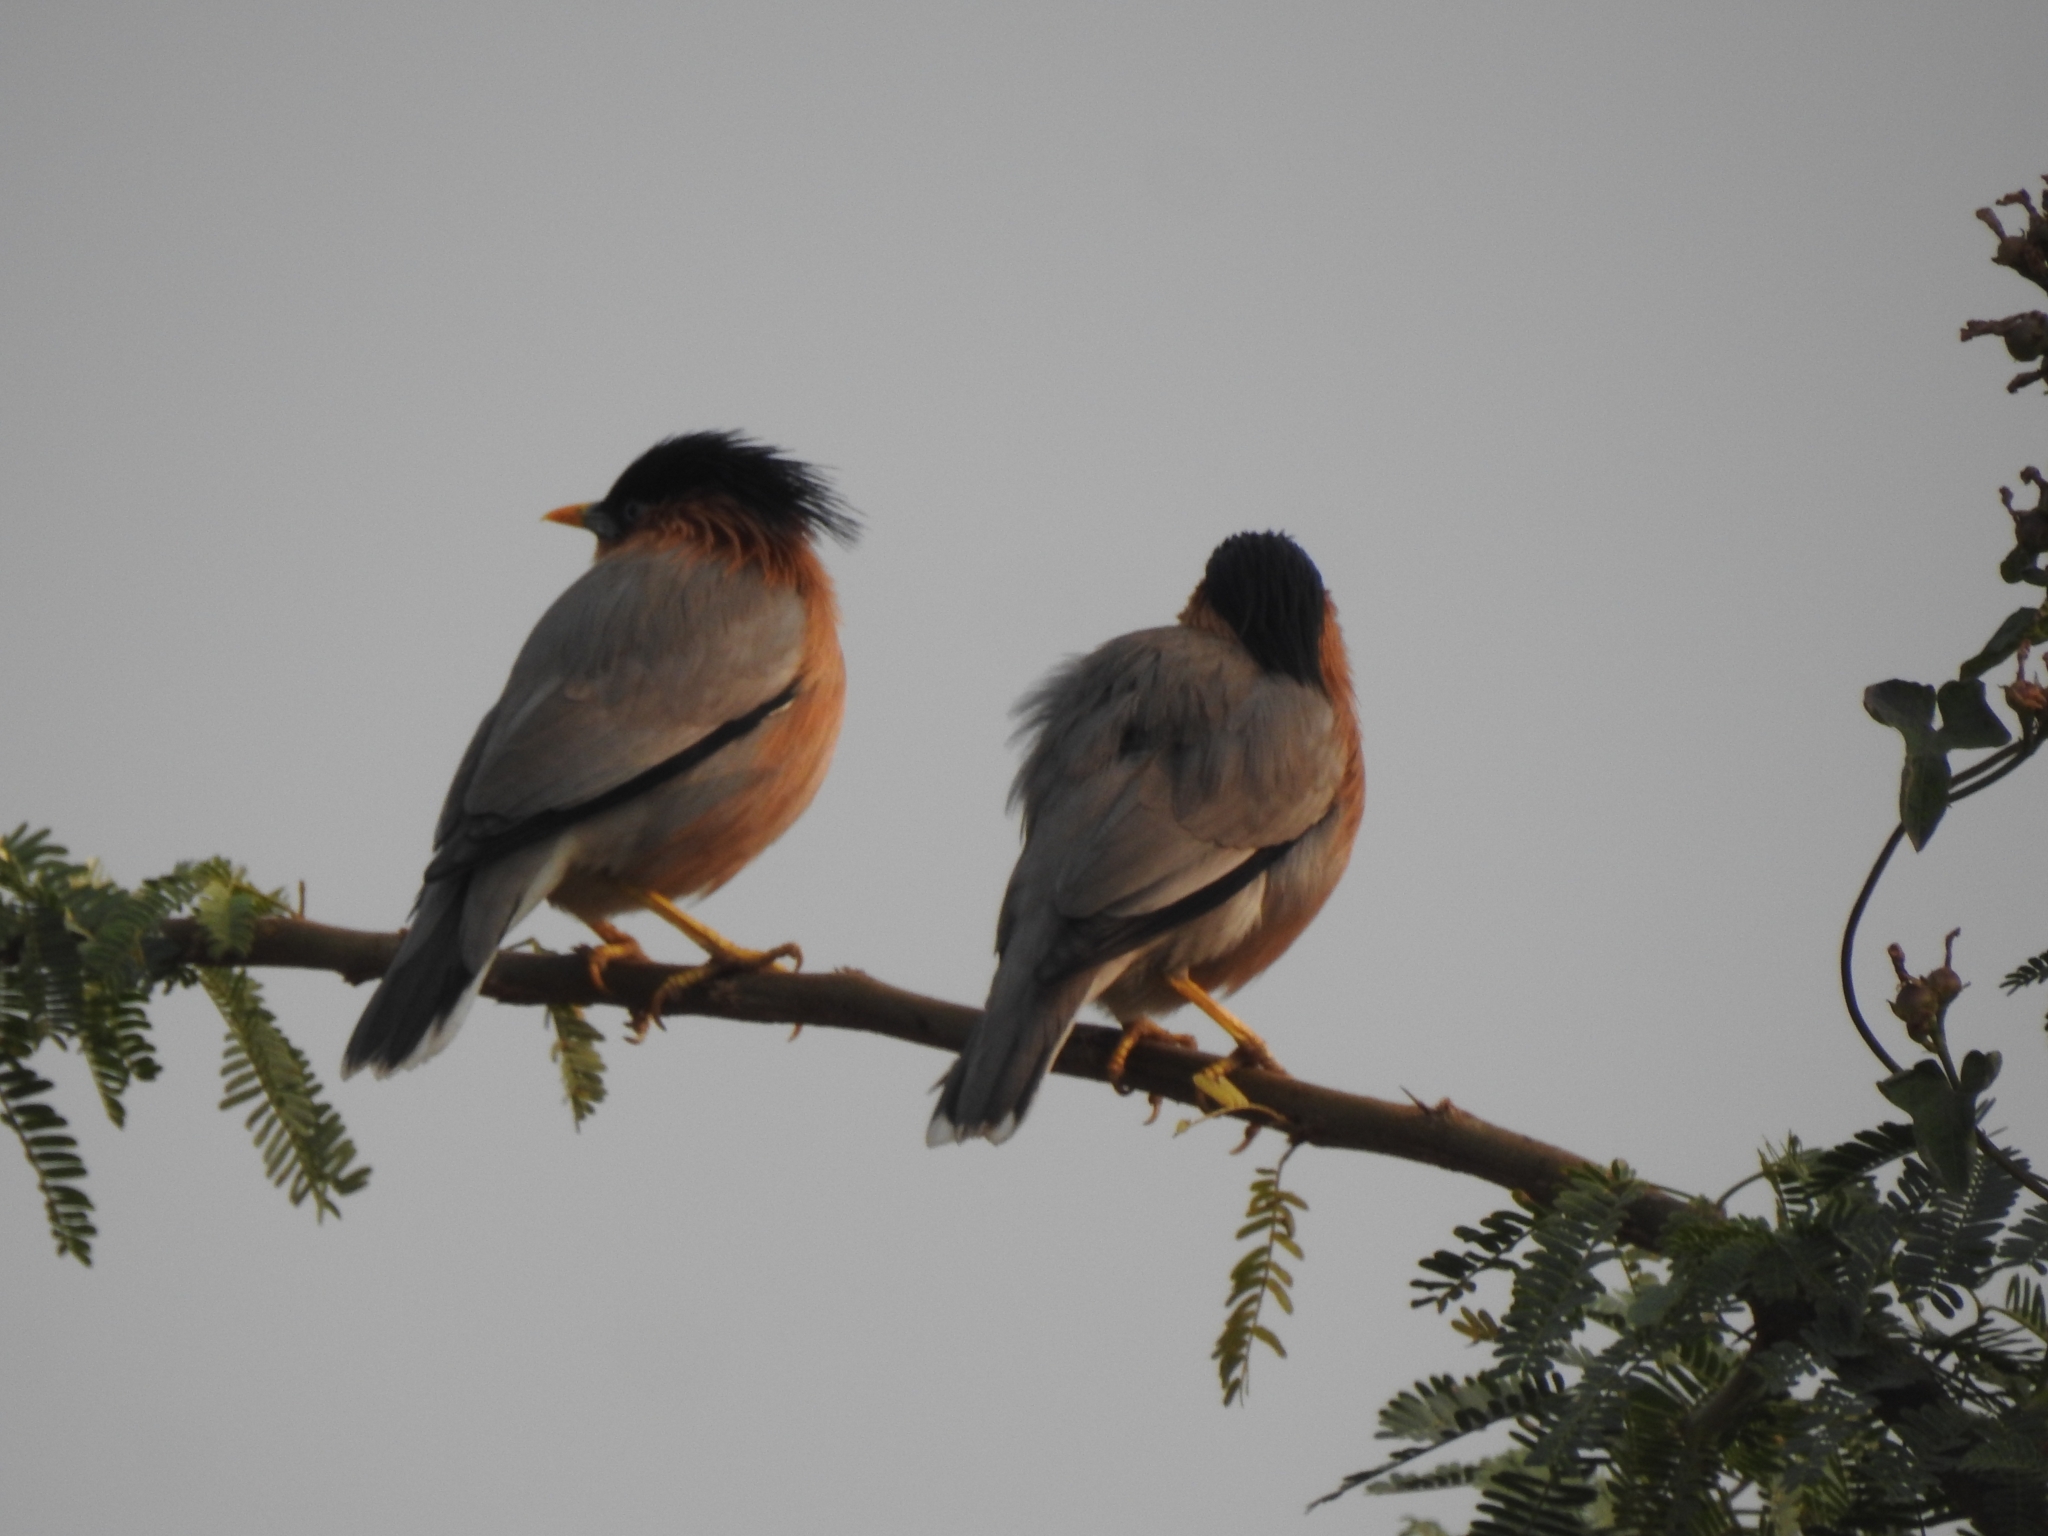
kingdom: Animalia
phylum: Chordata
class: Aves
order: Passeriformes
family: Sturnidae
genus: Sturnia
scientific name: Sturnia pagodarum
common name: Brahminy starling
